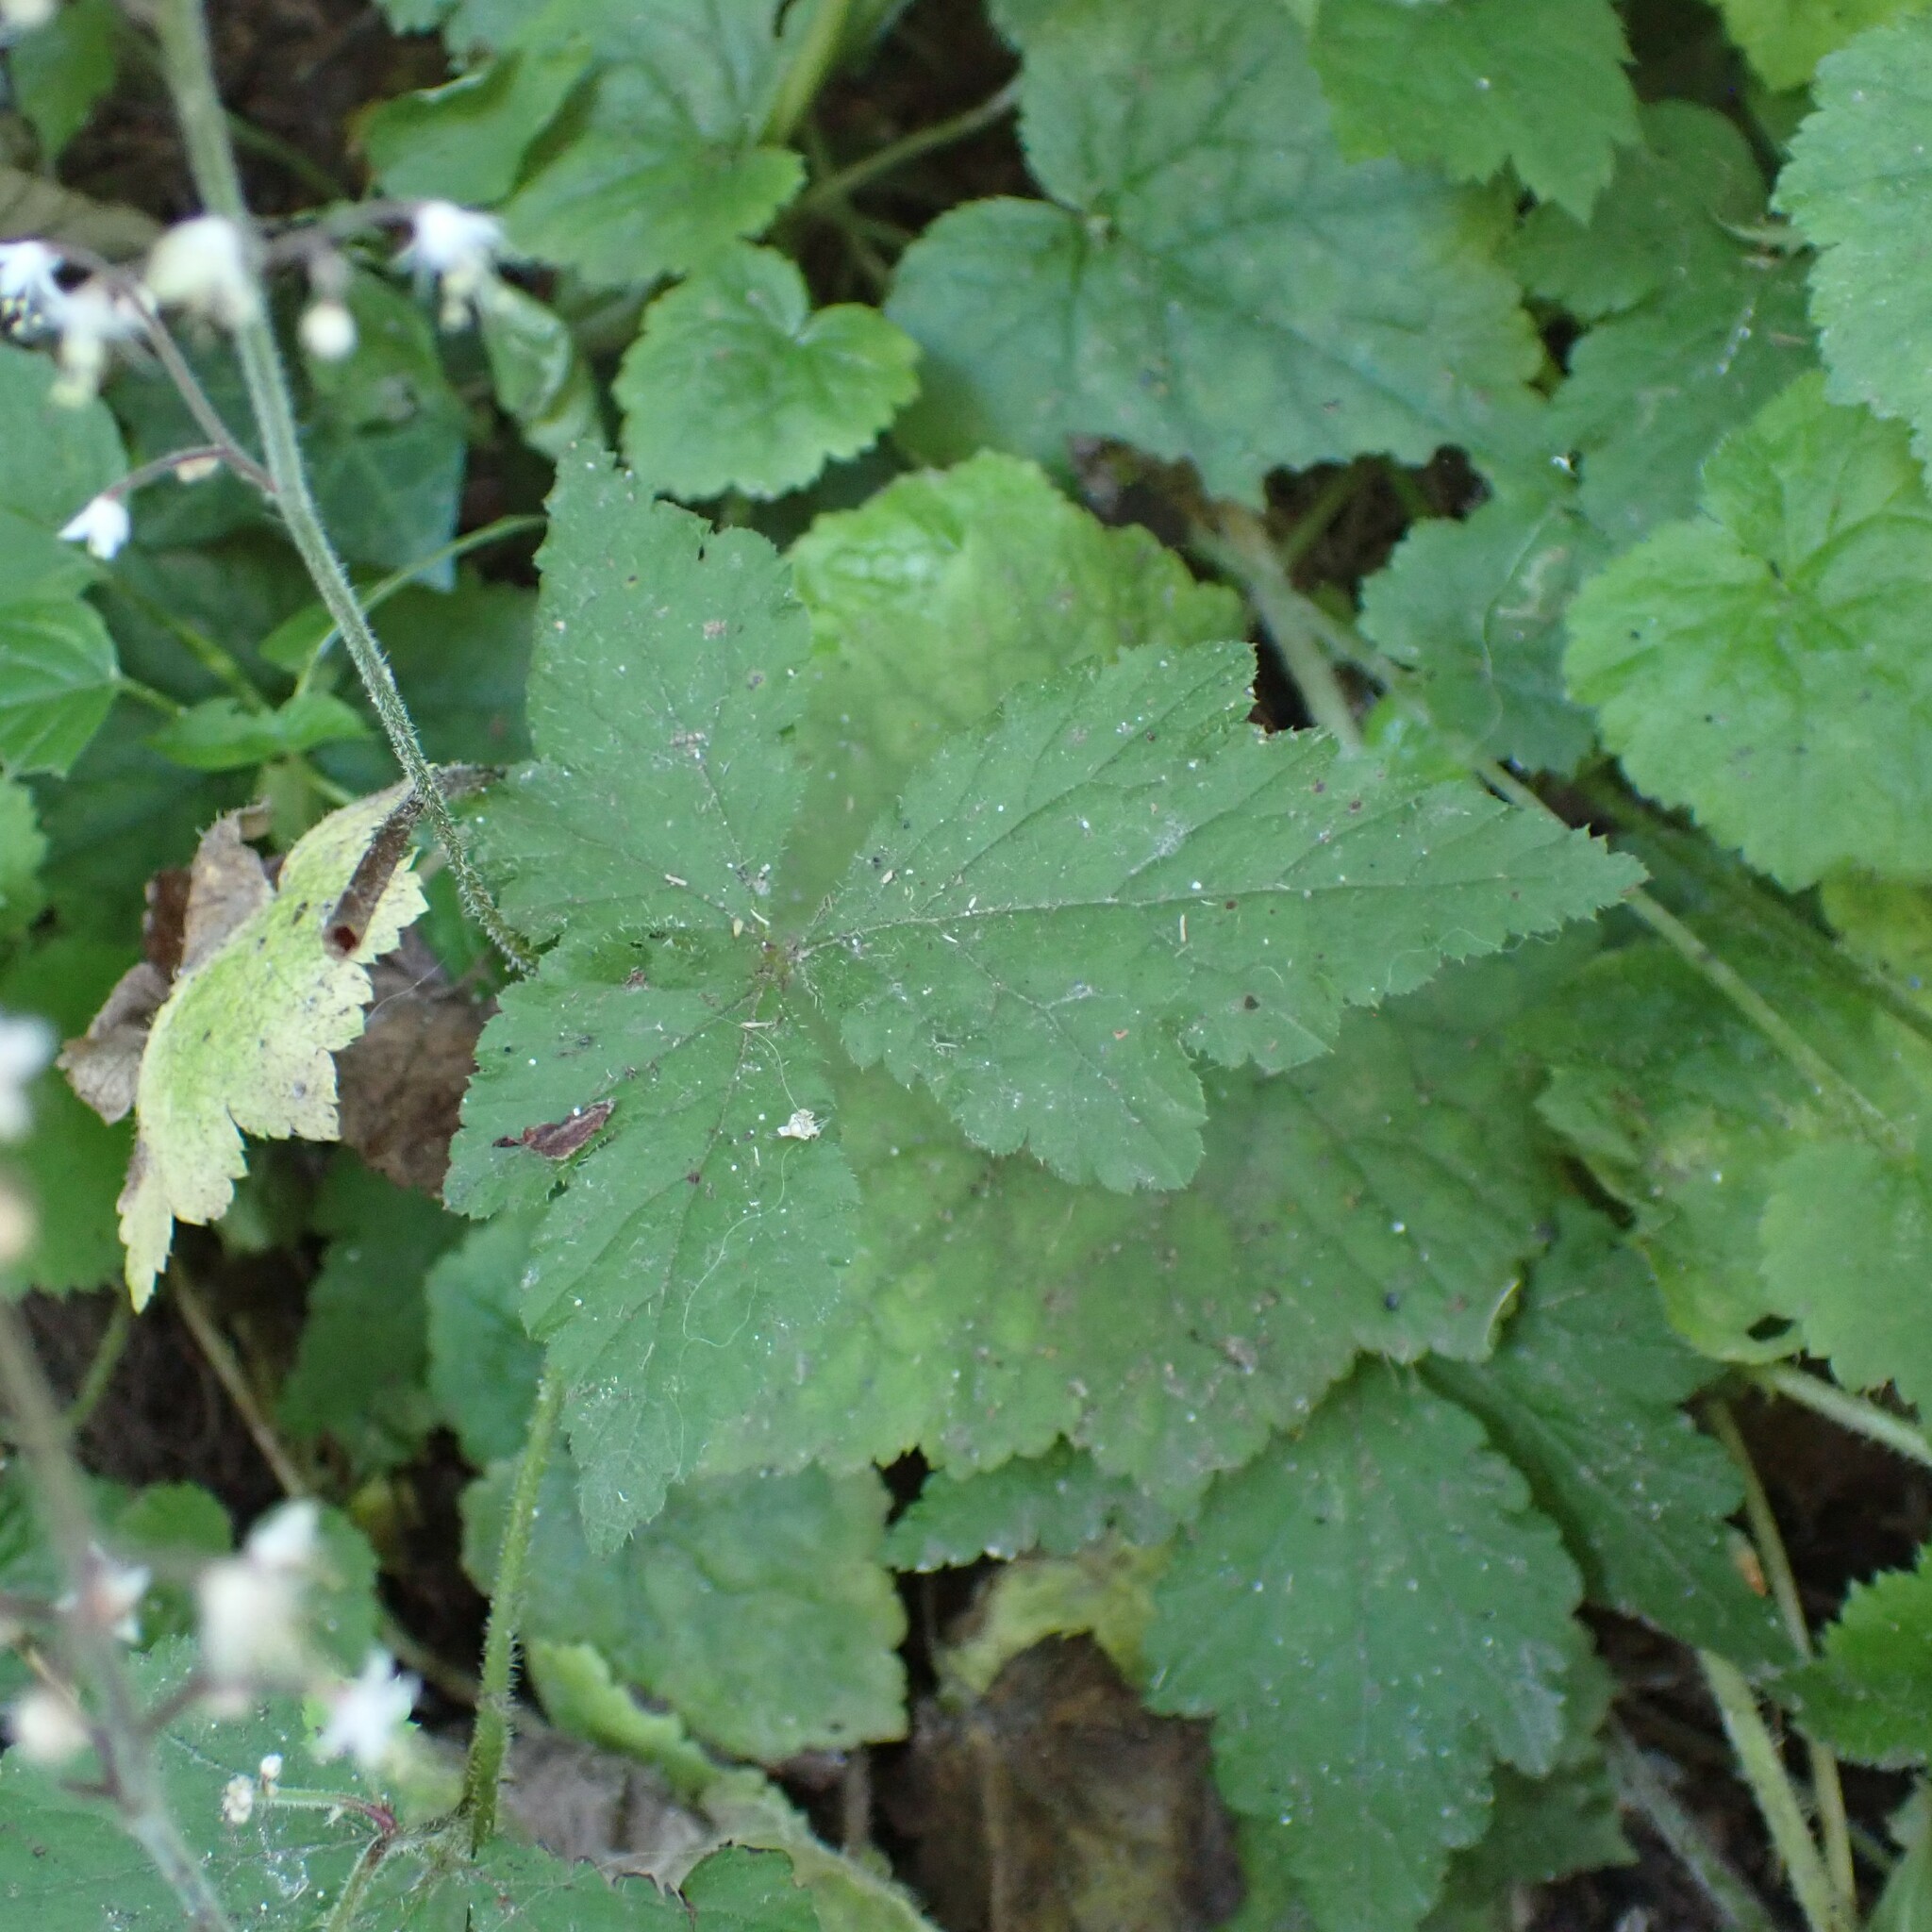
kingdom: Plantae
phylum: Tracheophyta
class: Magnoliopsida
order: Saxifragales
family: Saxifragaceae
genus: Tiarella
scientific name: Tiarella trifoliata
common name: Sugar-scoop
